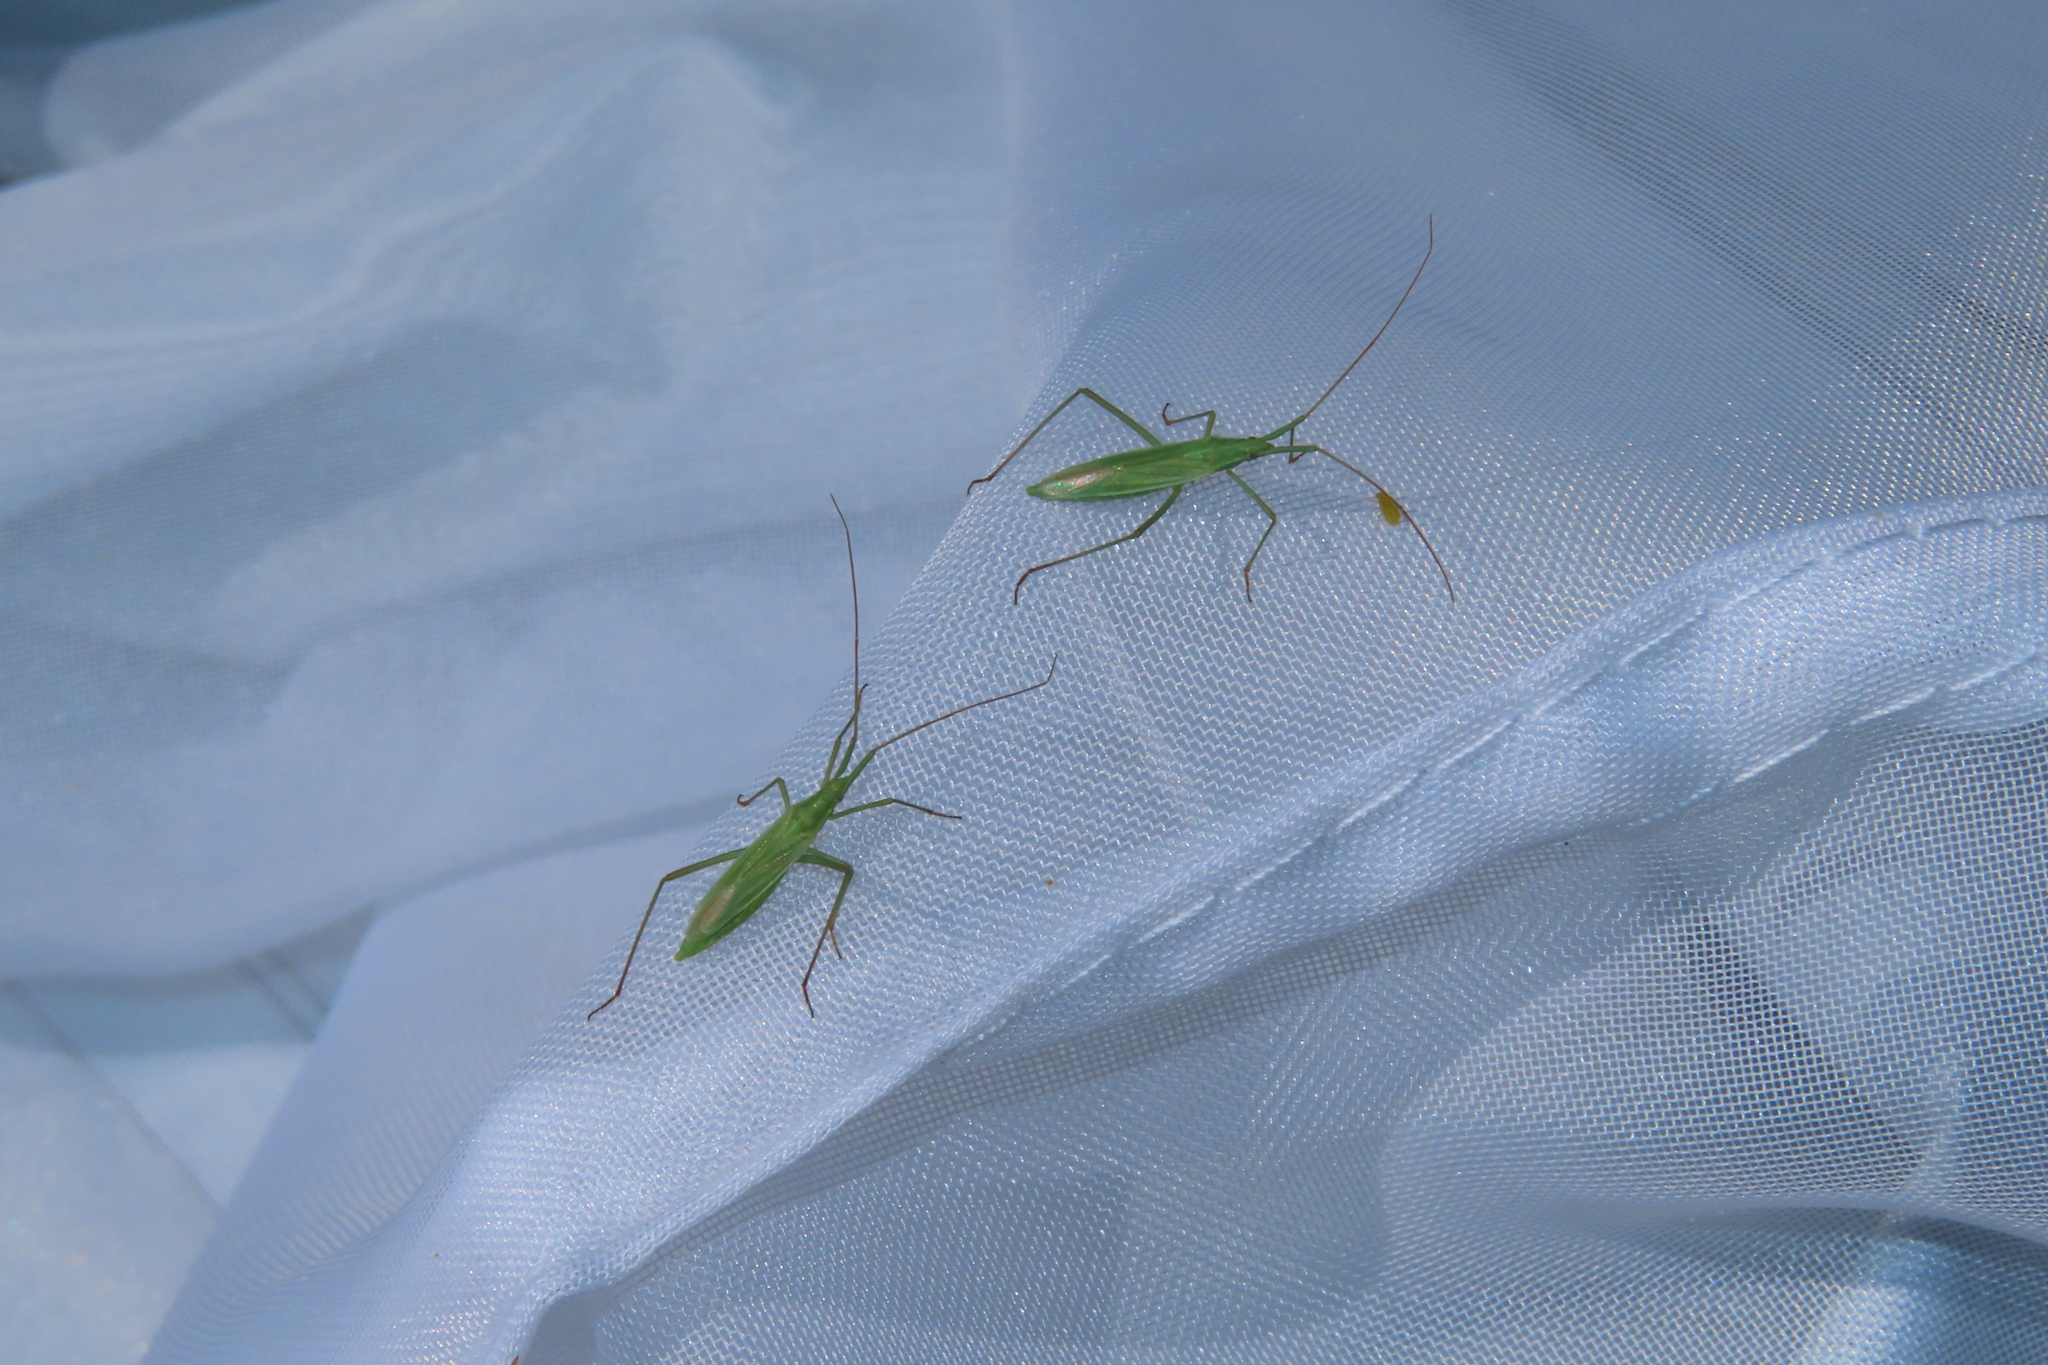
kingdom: Animalia
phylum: Arthropoda
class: Insecta
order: Hemiptera
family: Miridae
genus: Megaloceroea
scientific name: Megaloceroea recticornis
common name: Plant bug
